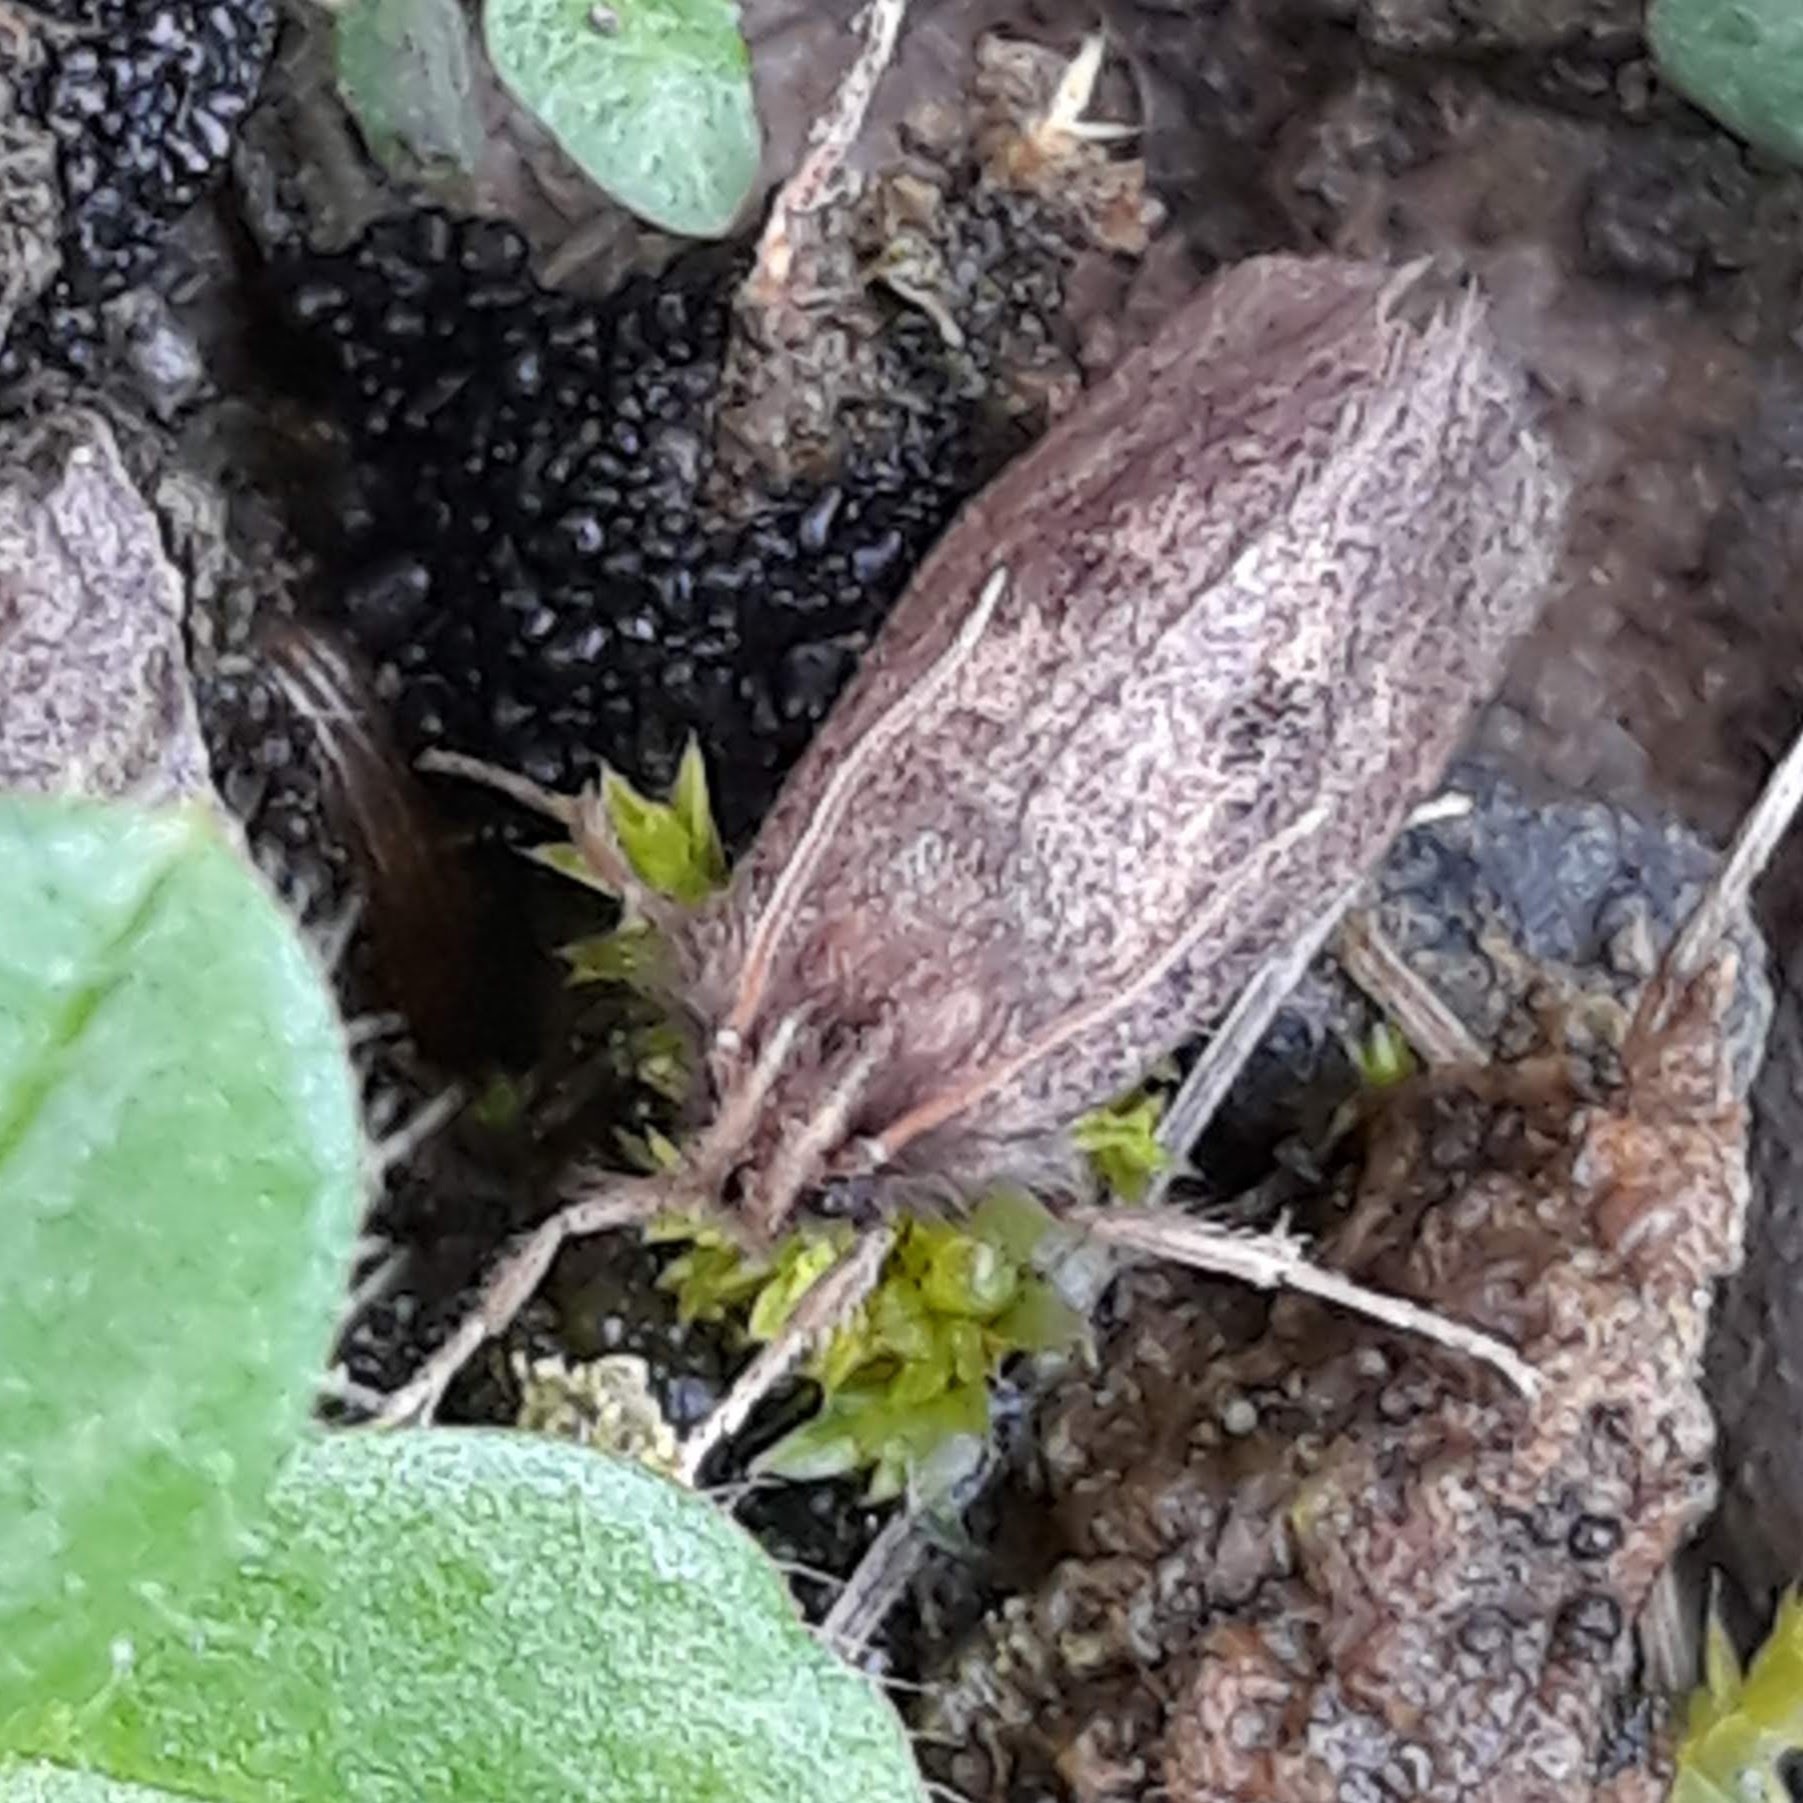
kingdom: Animalia
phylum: Arthropoda
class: Insecta
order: Lepidoptera
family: Tineidae
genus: Acrolophus
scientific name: Acrolophus mora
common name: Dark acrolophus
